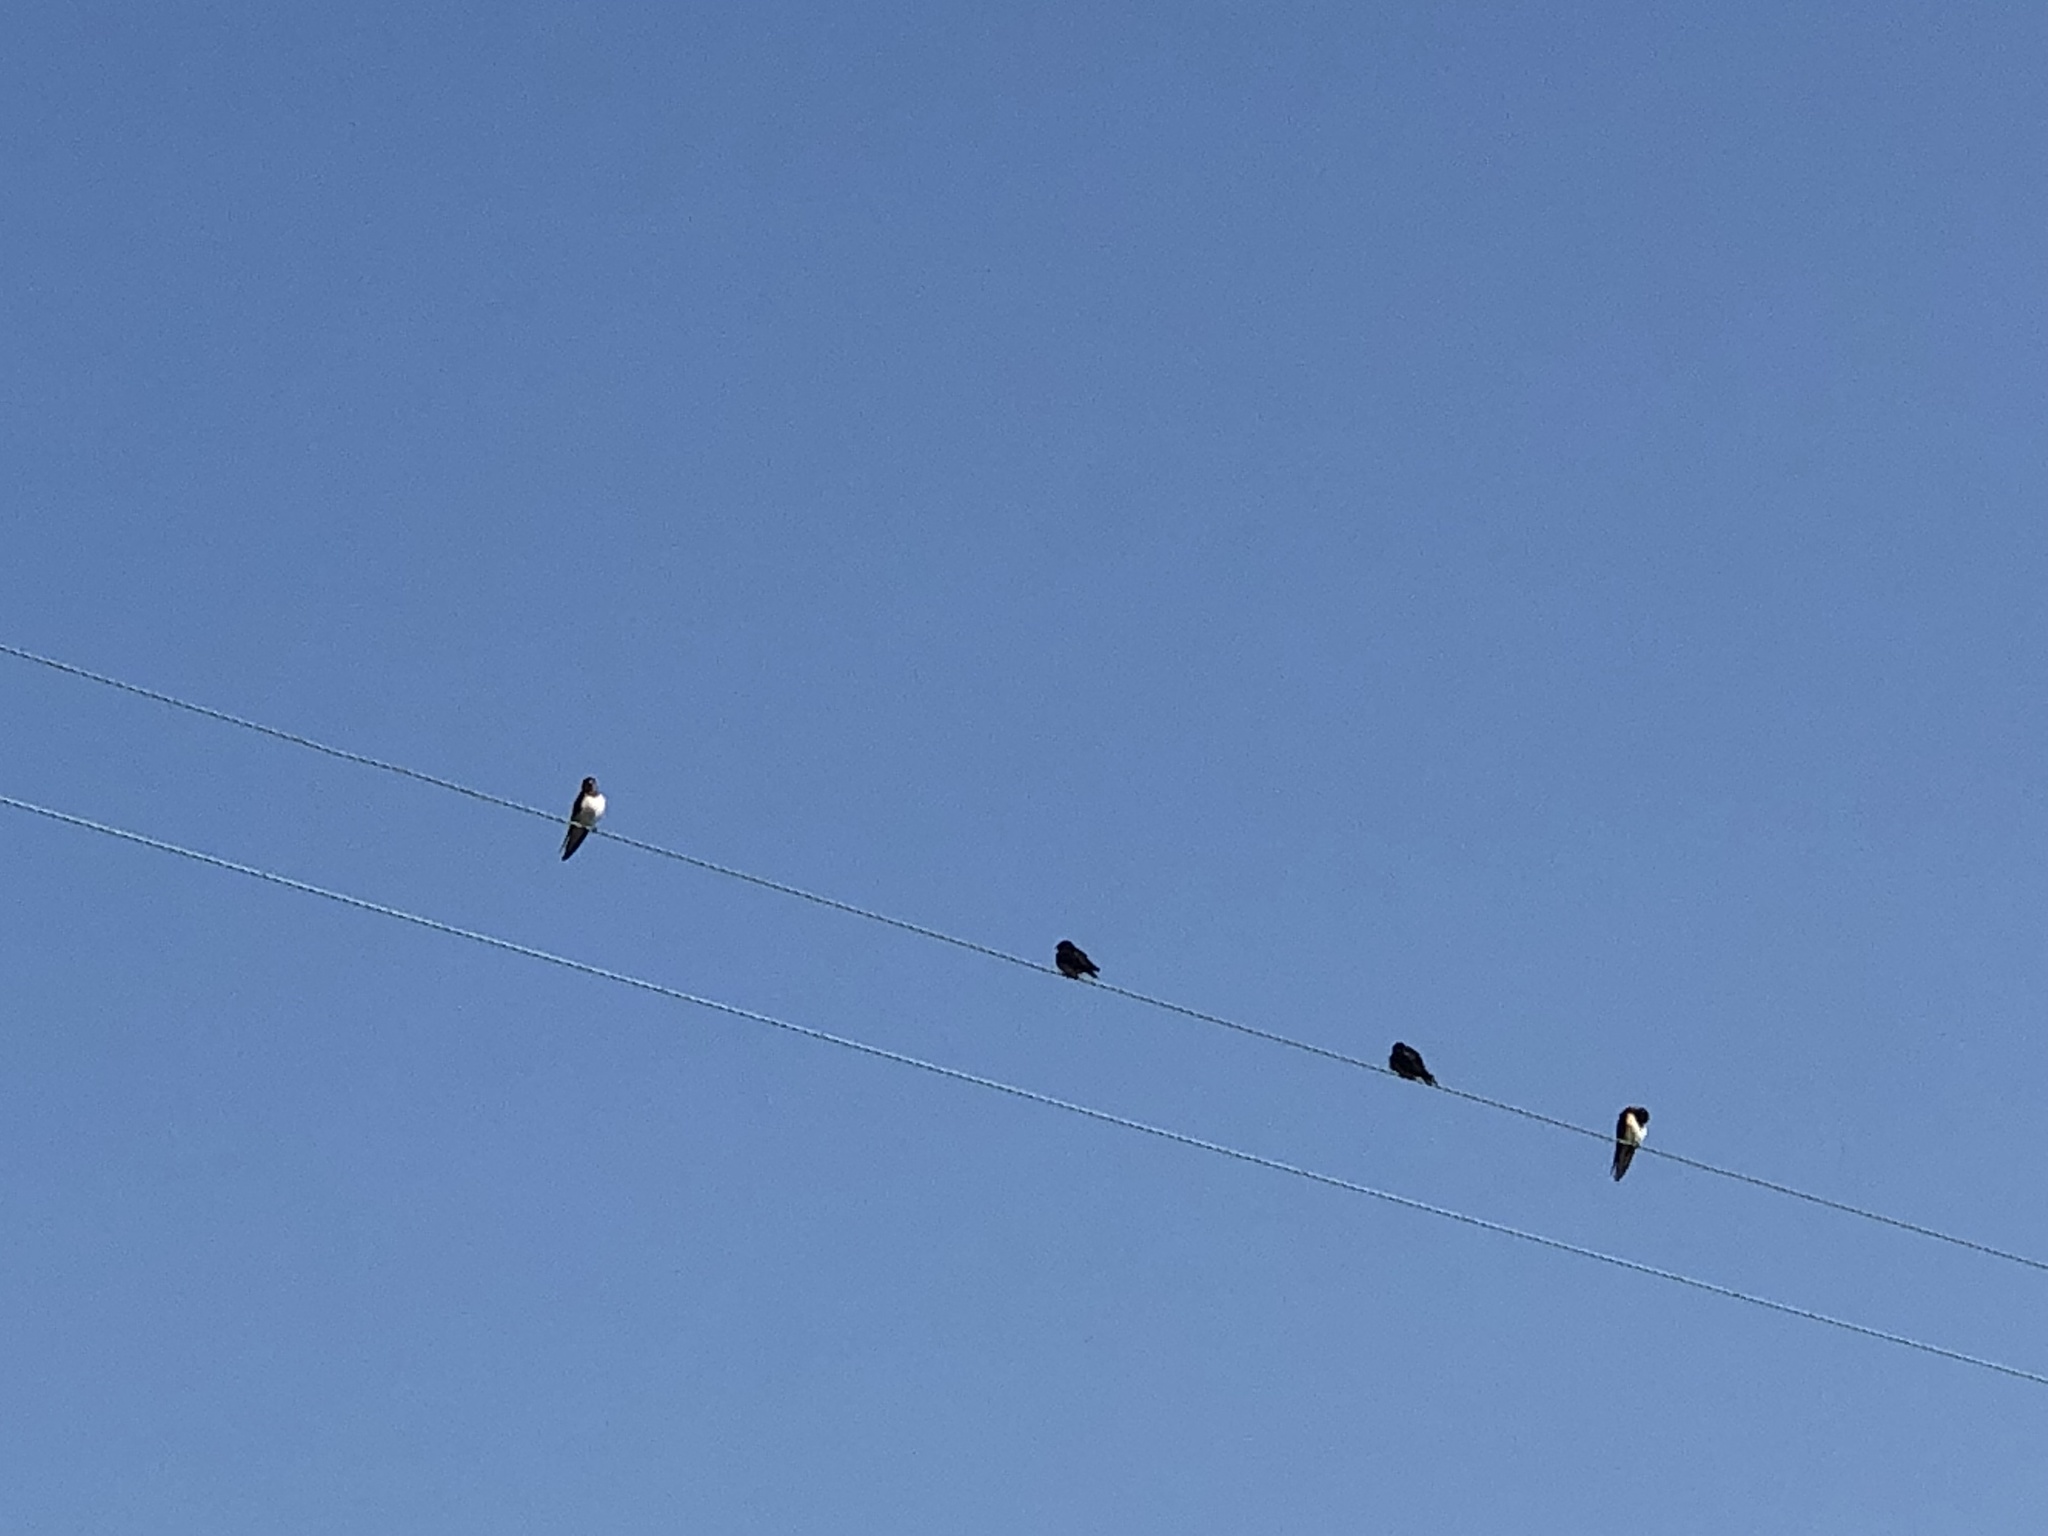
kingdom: Animalia
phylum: Chordata
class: Aves
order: Passeriformes
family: Hirundinidae
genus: Hirundo
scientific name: Hirundo rustica
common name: Barn swallow
